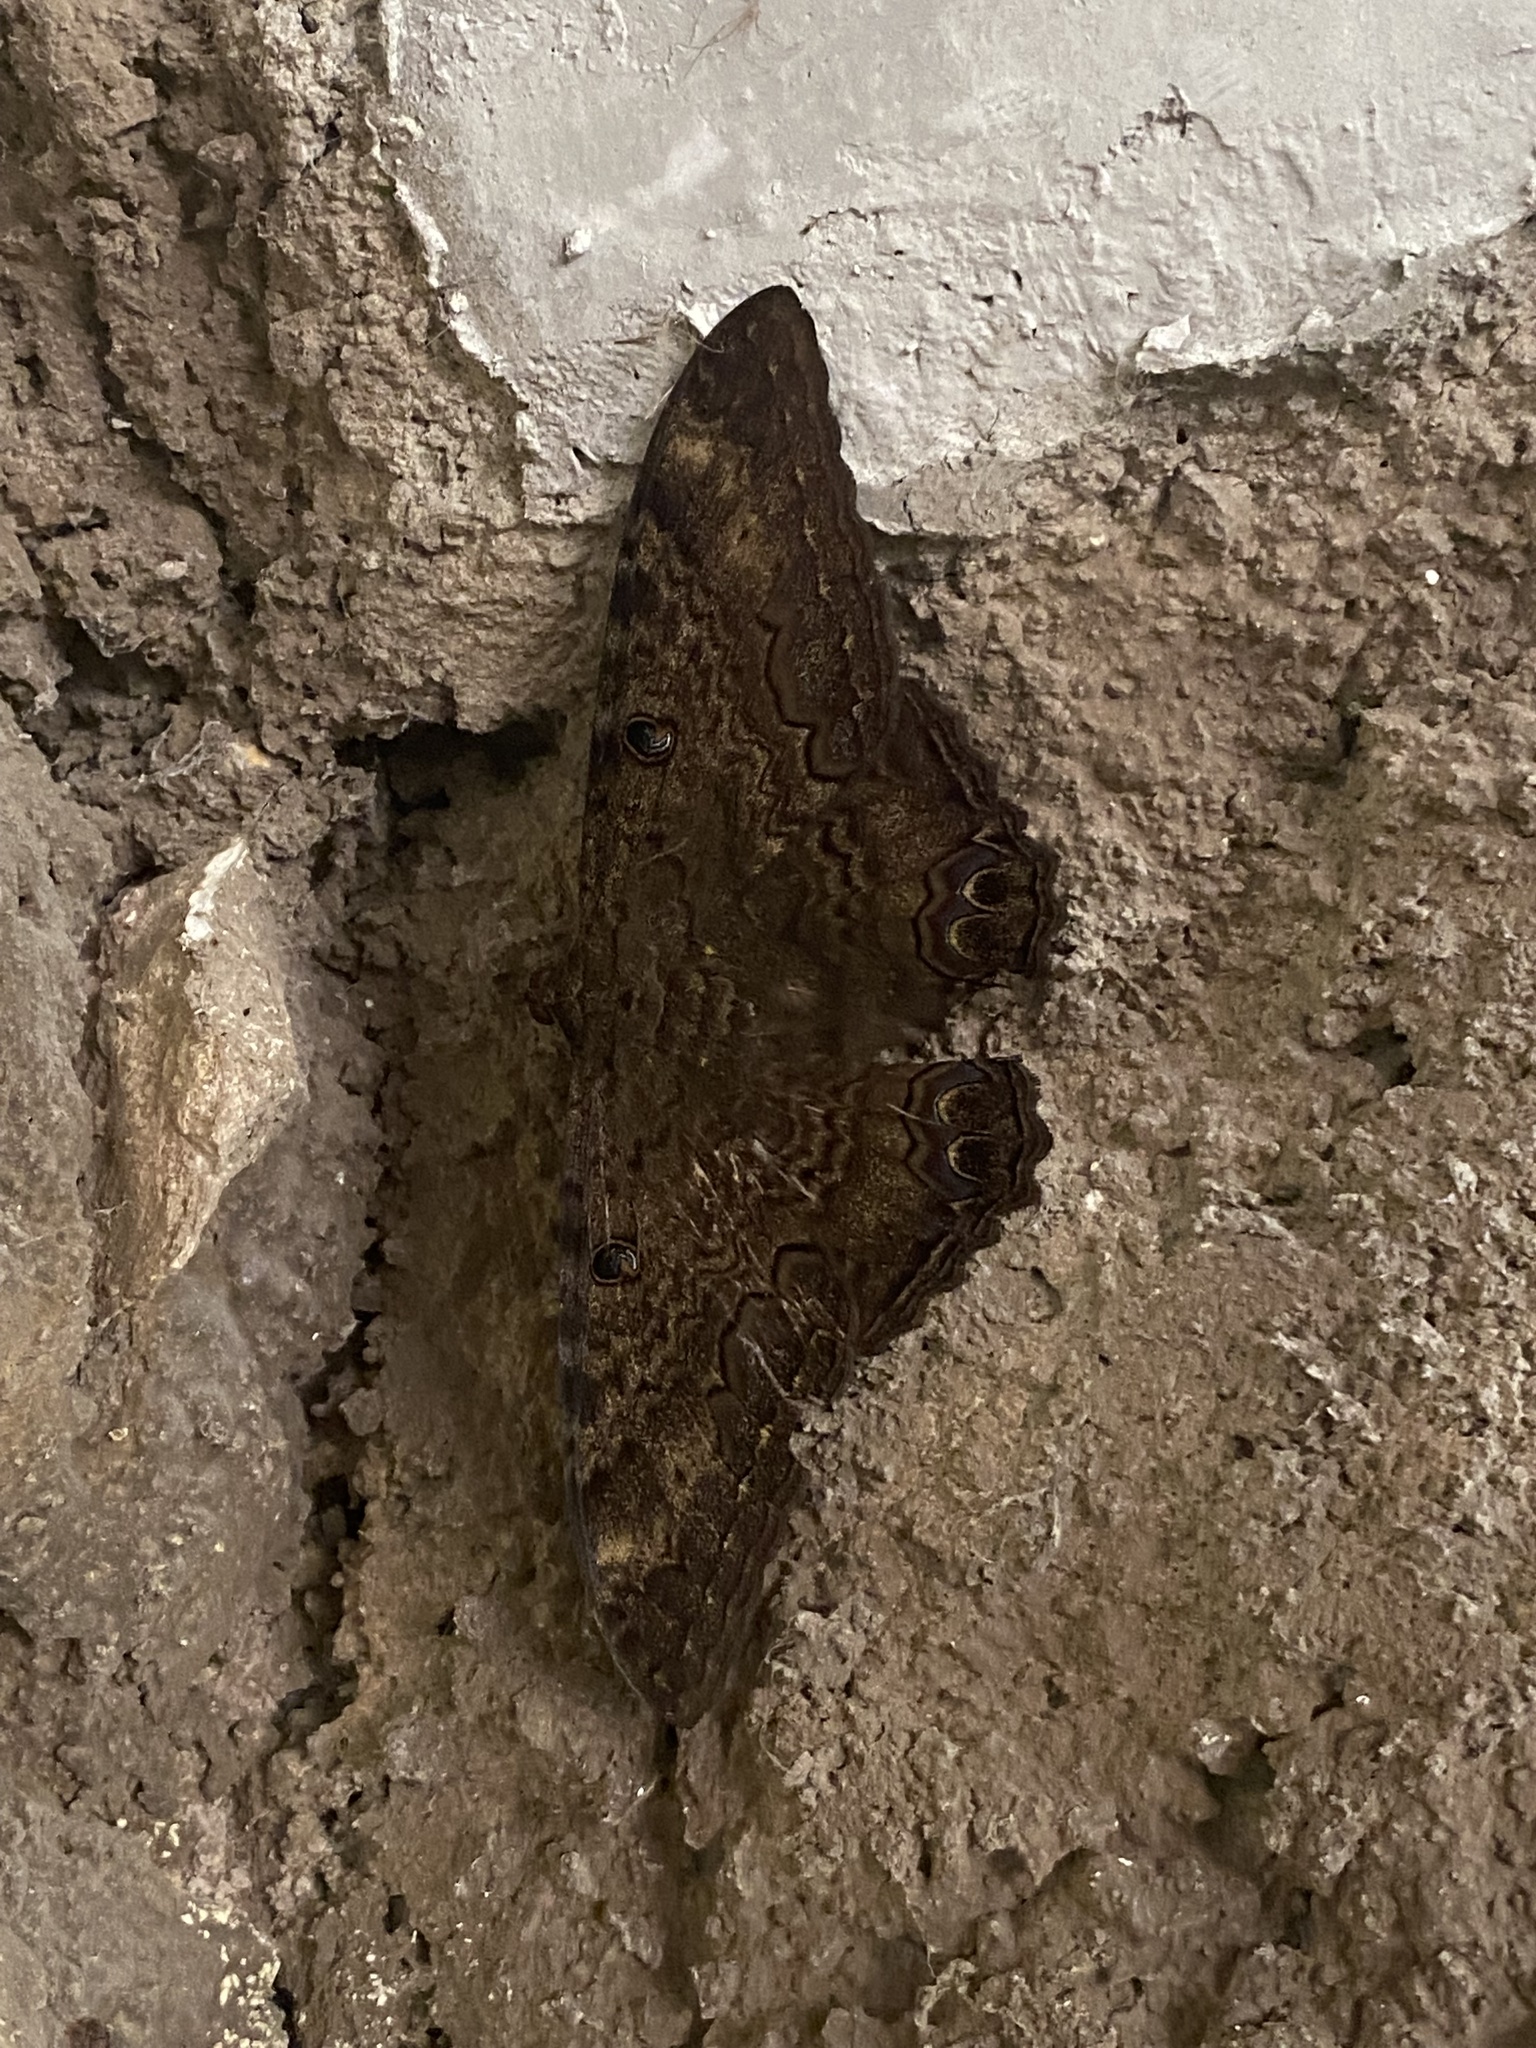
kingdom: Animalia
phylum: Arthropoda
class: Insecta
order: Lepidoptera
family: Erebidae
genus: Ascalapha
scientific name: Ascalapha odorata
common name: Black witch
